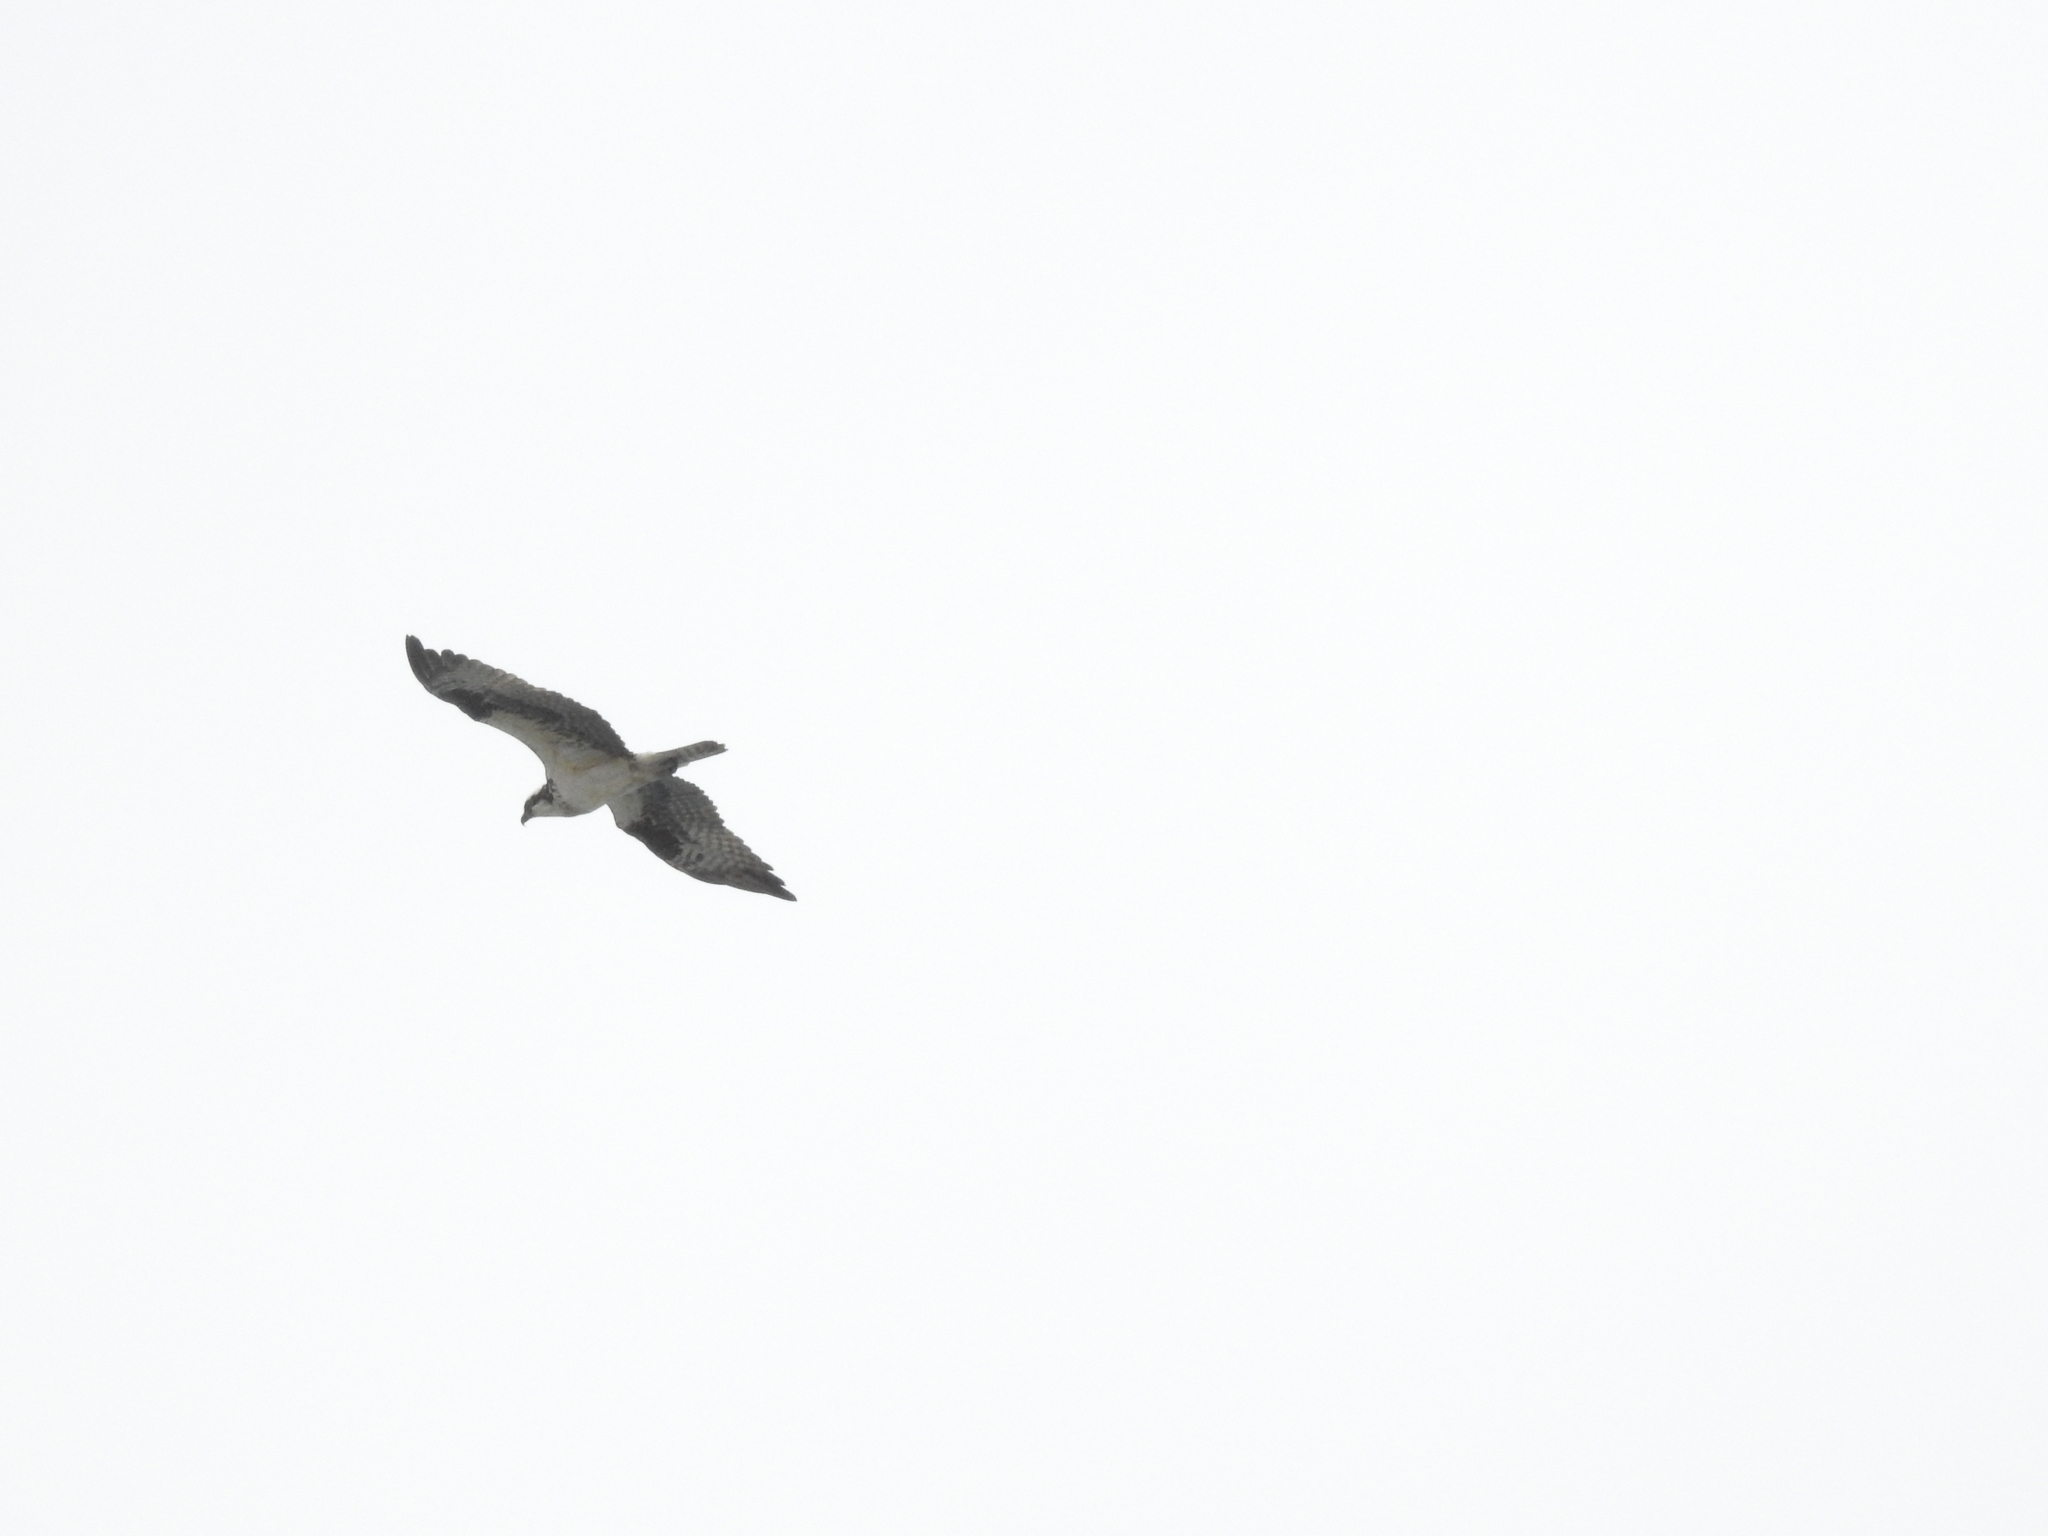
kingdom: Animalia
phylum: Chordata
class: Aves
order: Accipitriformes
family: Pandionidae
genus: Pandion
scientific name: Pandion haliaetus
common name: Osprey
